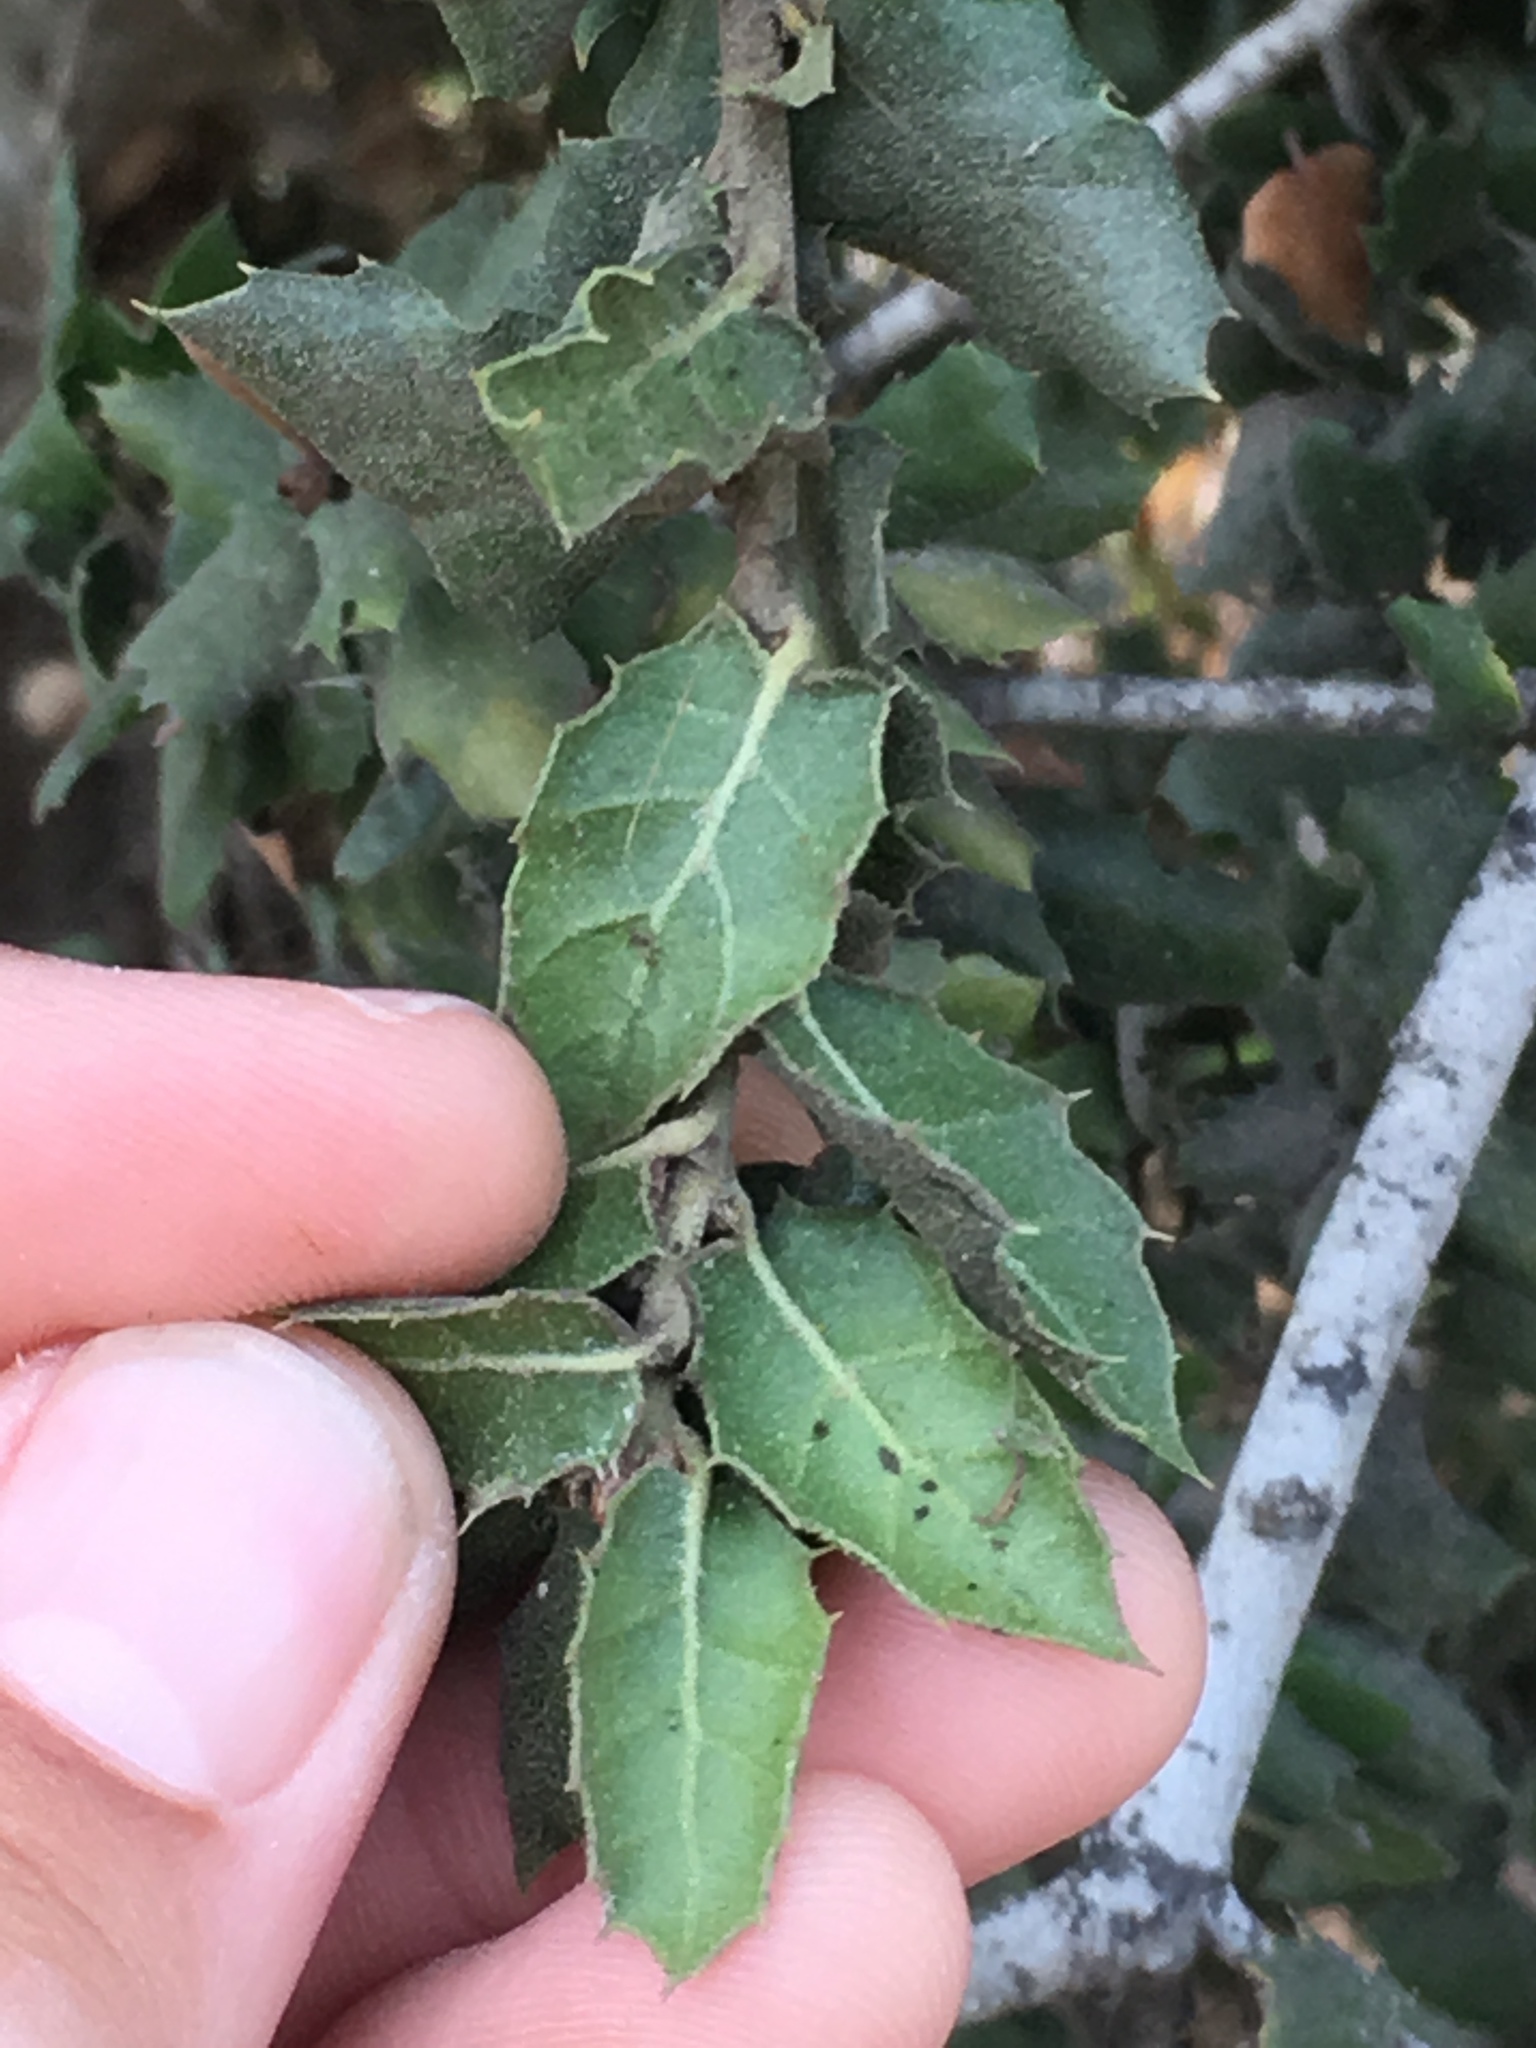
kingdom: Plantae
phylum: Tracheophyta
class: Magnoliopsida
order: Fagales
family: Fagaceae
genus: Quercus
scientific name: Quercus agrifolia
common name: California live oak
